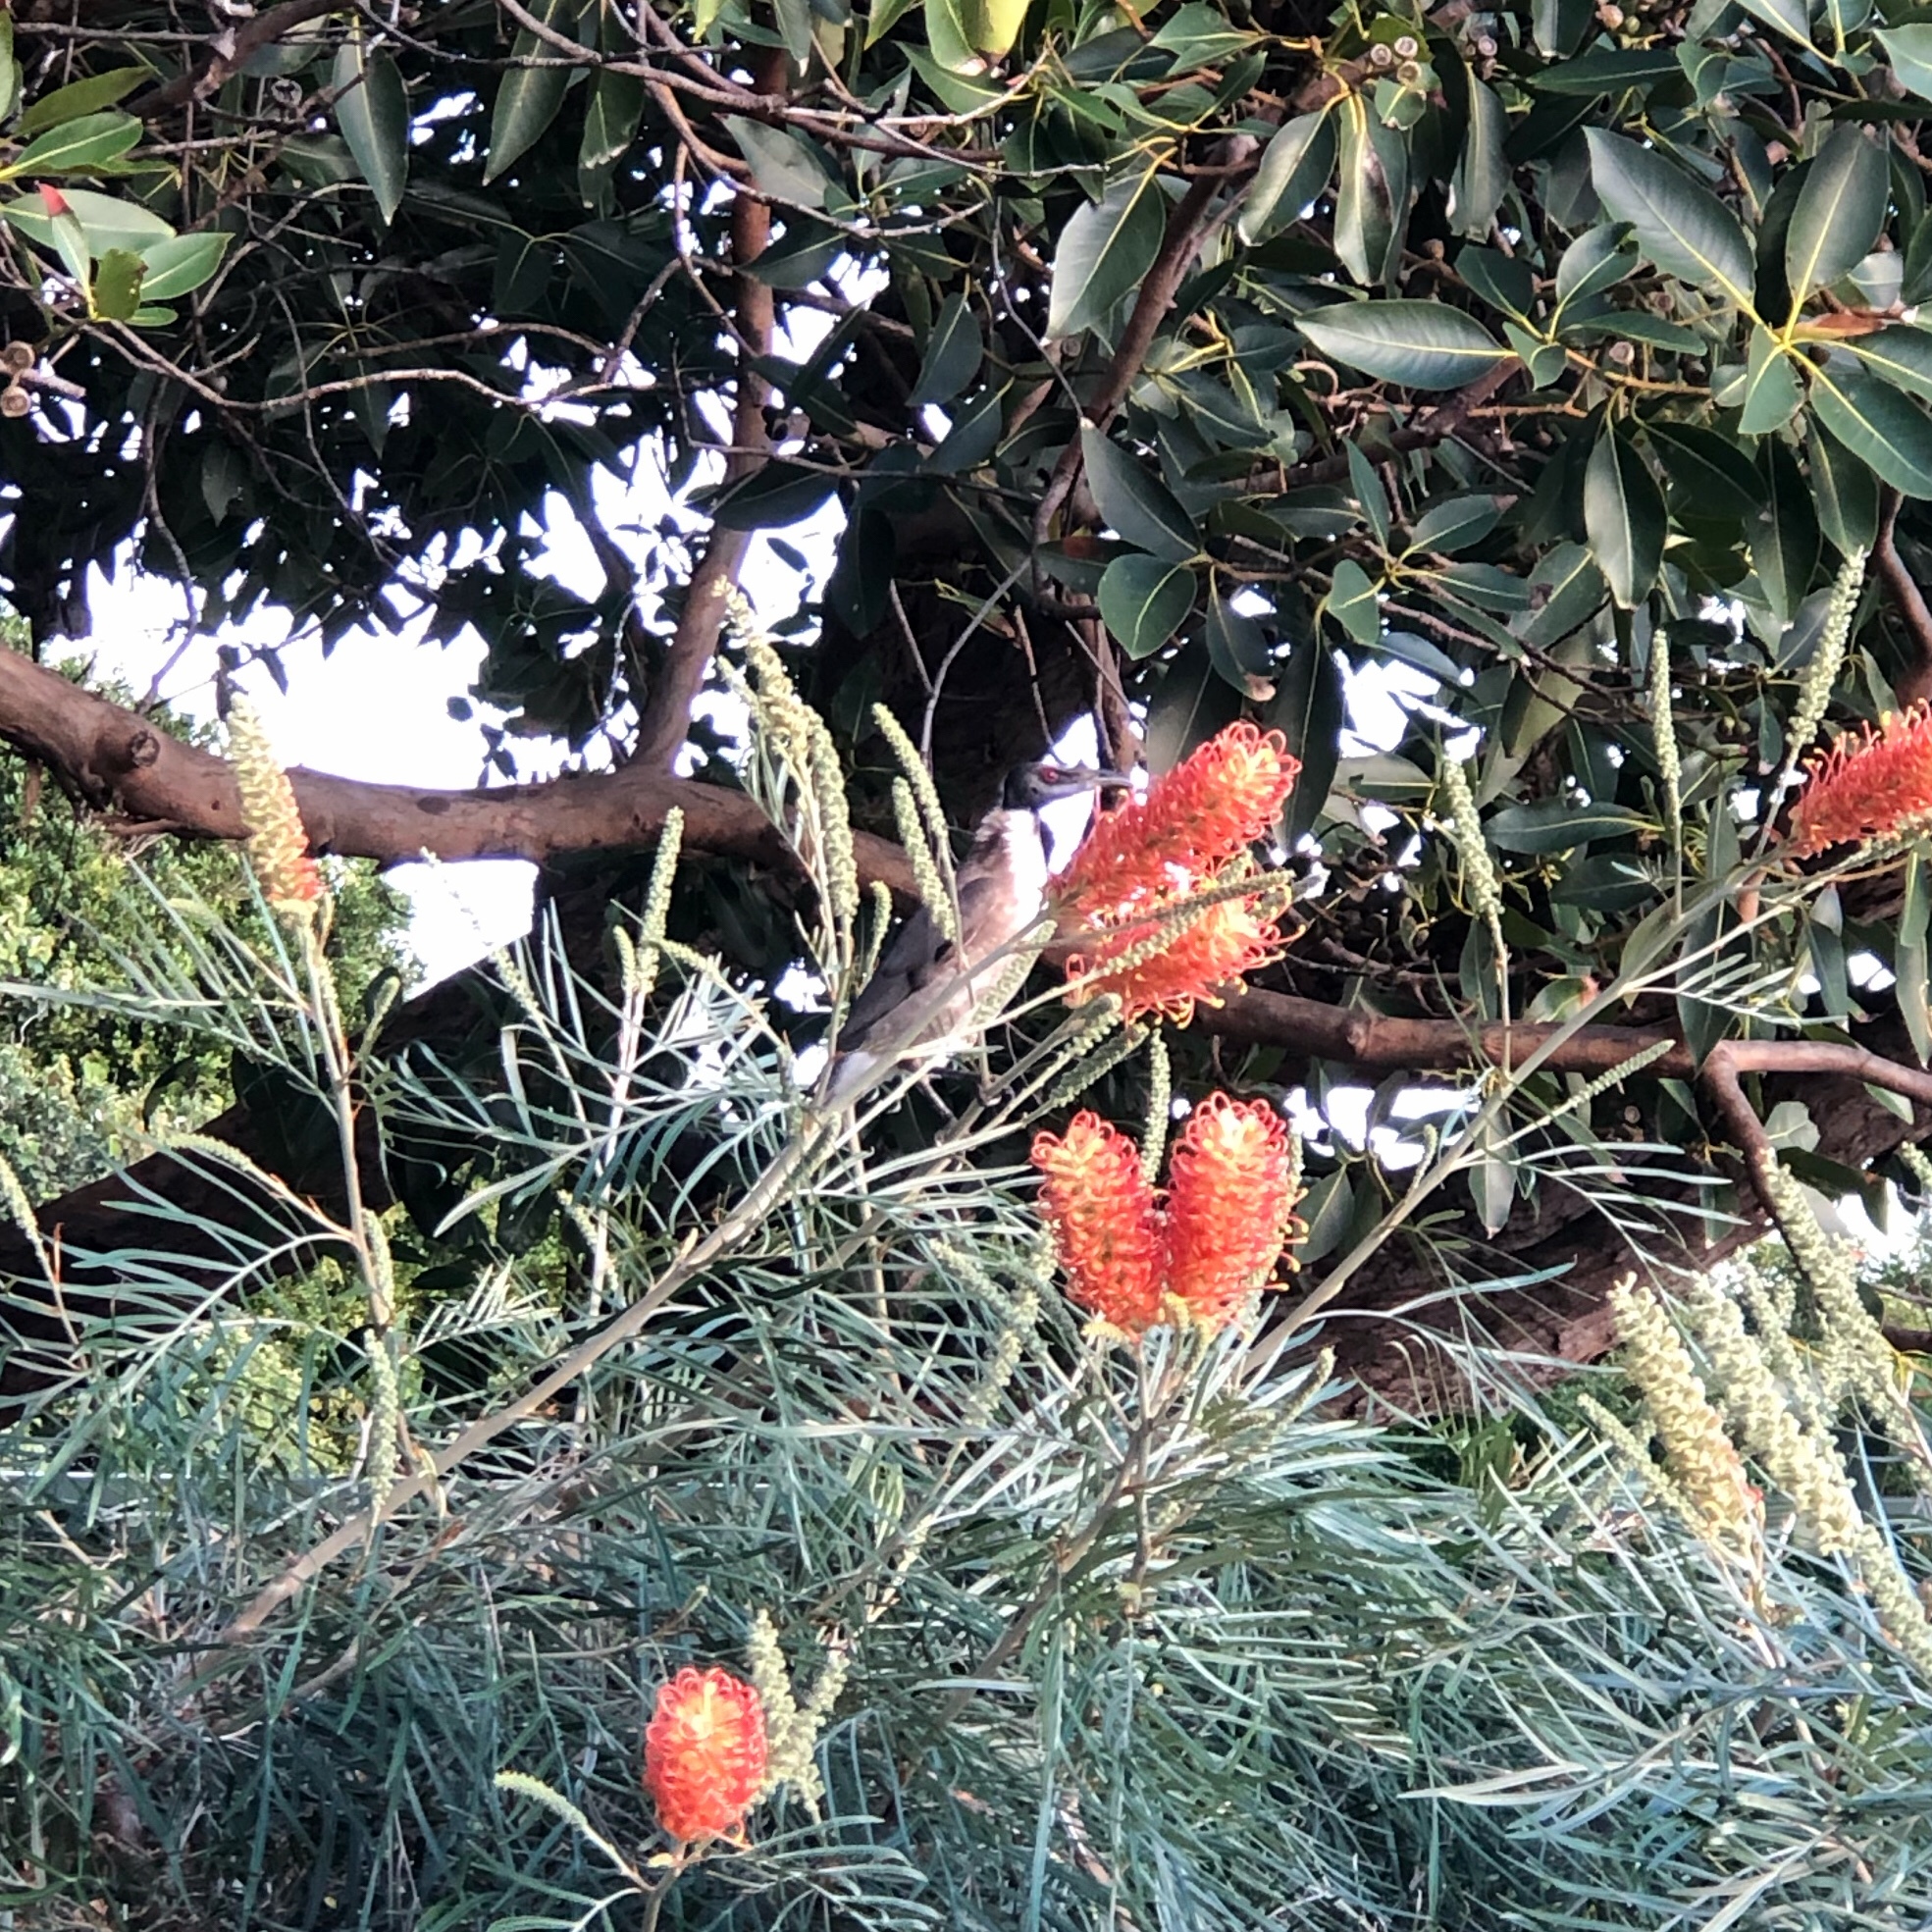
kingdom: Animalia
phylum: Chordata
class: Aves
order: Passeriformes
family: Meliphagidae
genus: Philemon
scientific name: Philemon corniculatus
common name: Noisy friarbird
